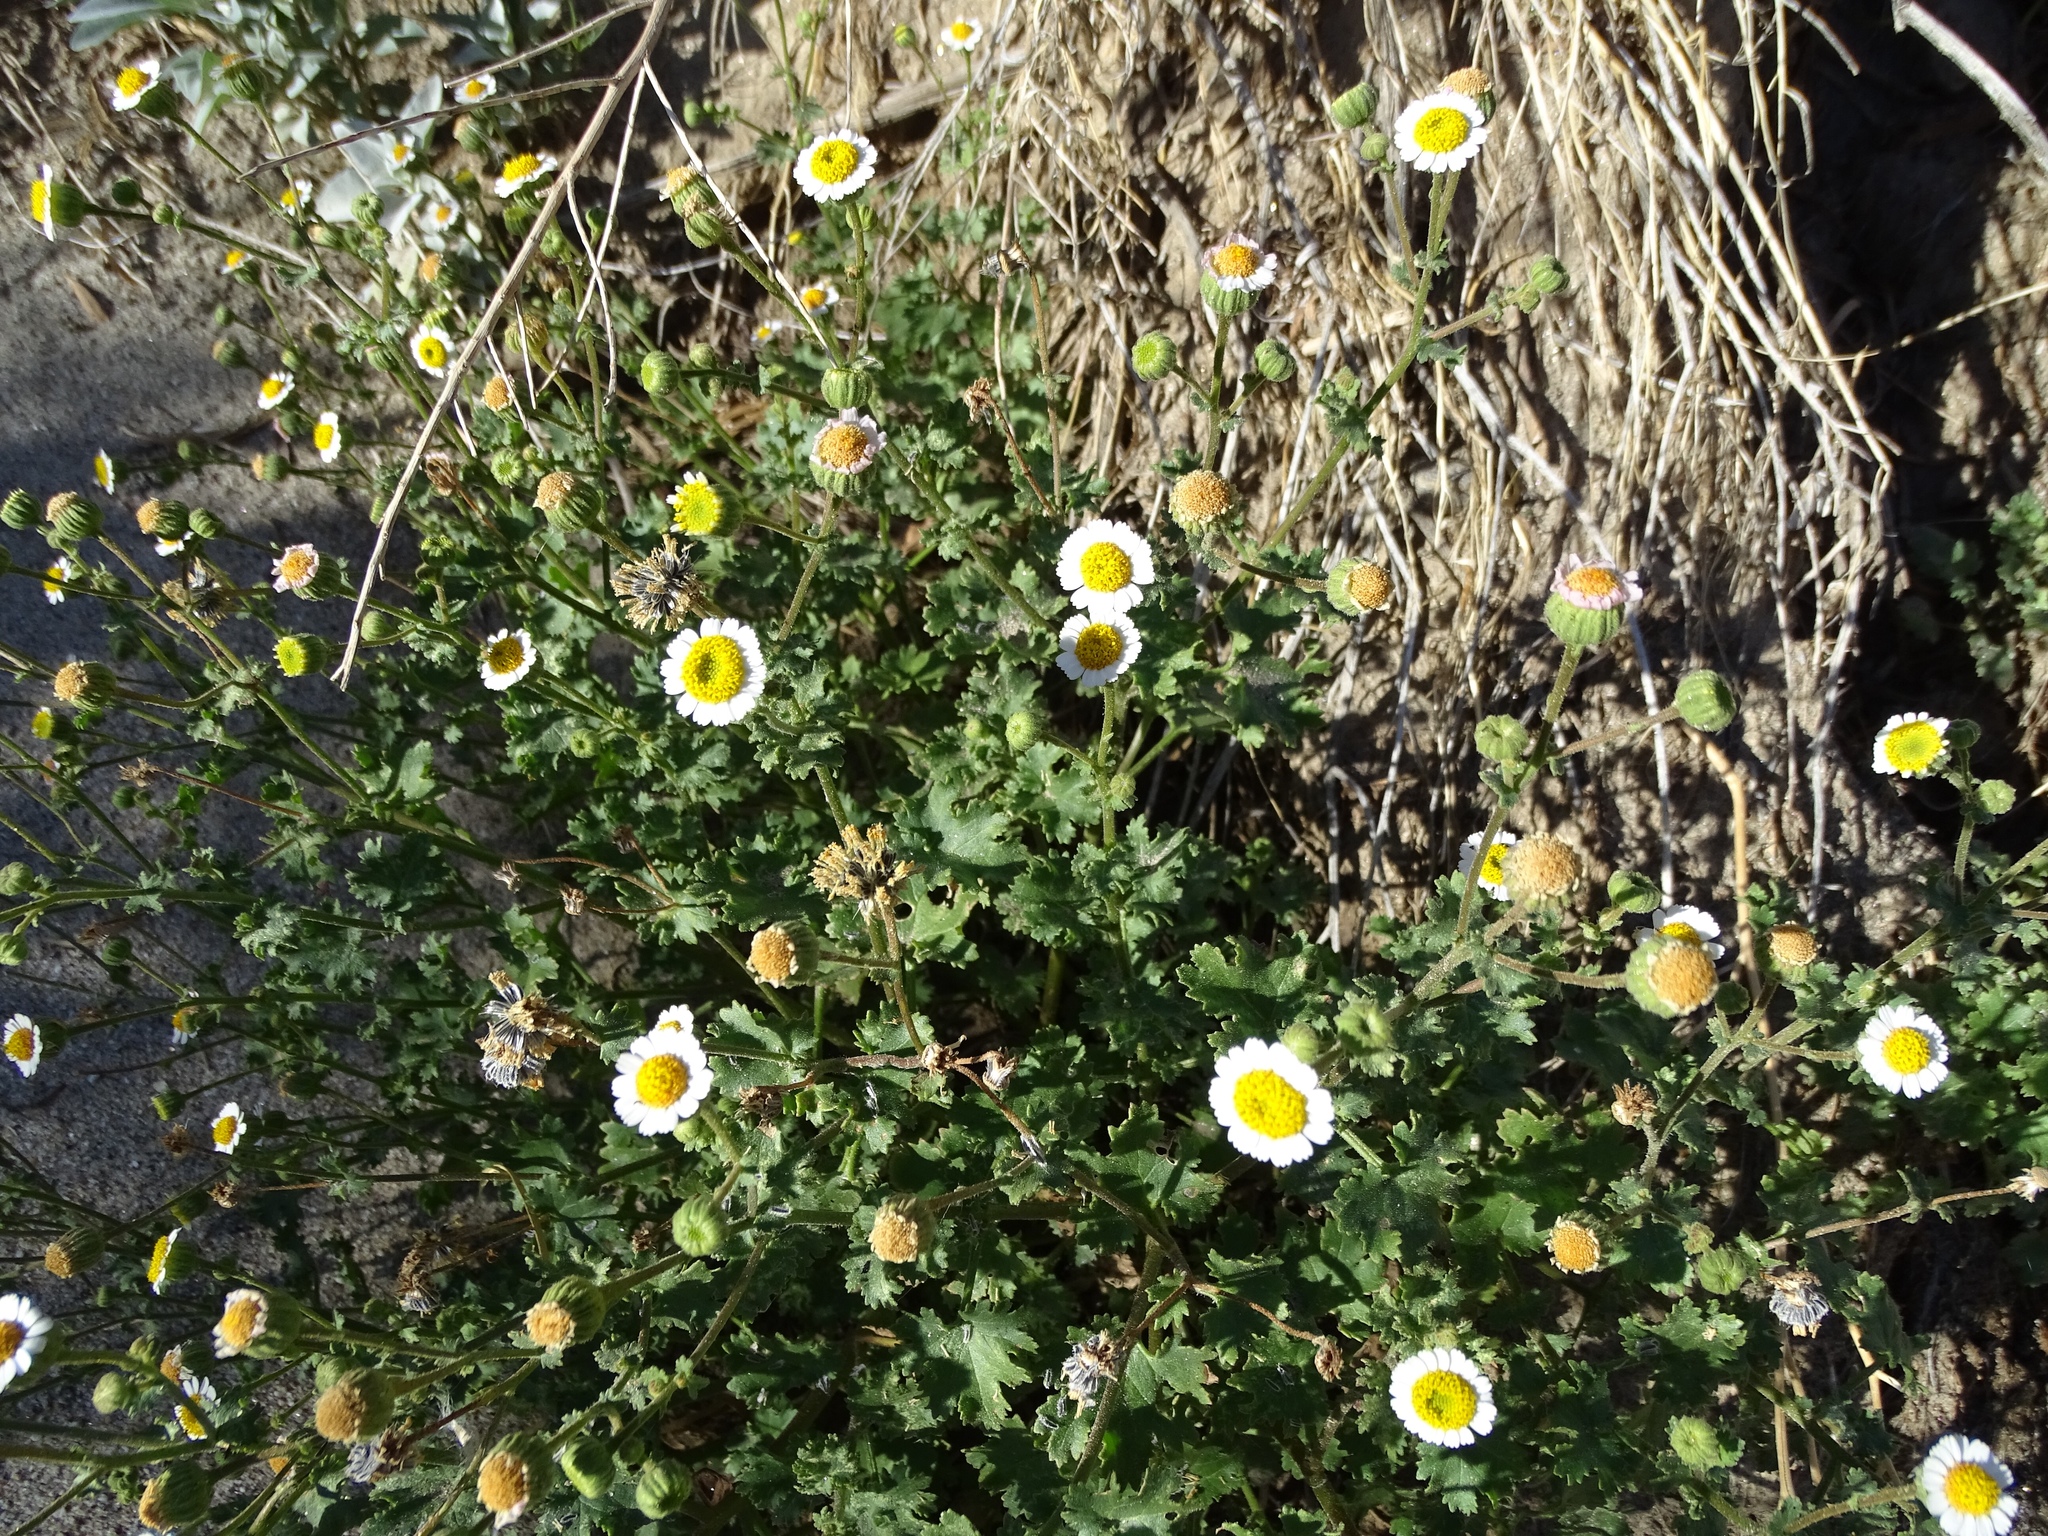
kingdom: Plantae
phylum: Tracheophyta
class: Magnoliopsida
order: Asterales
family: Asteraceae
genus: Laphamia
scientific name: Laphamia emoryi
